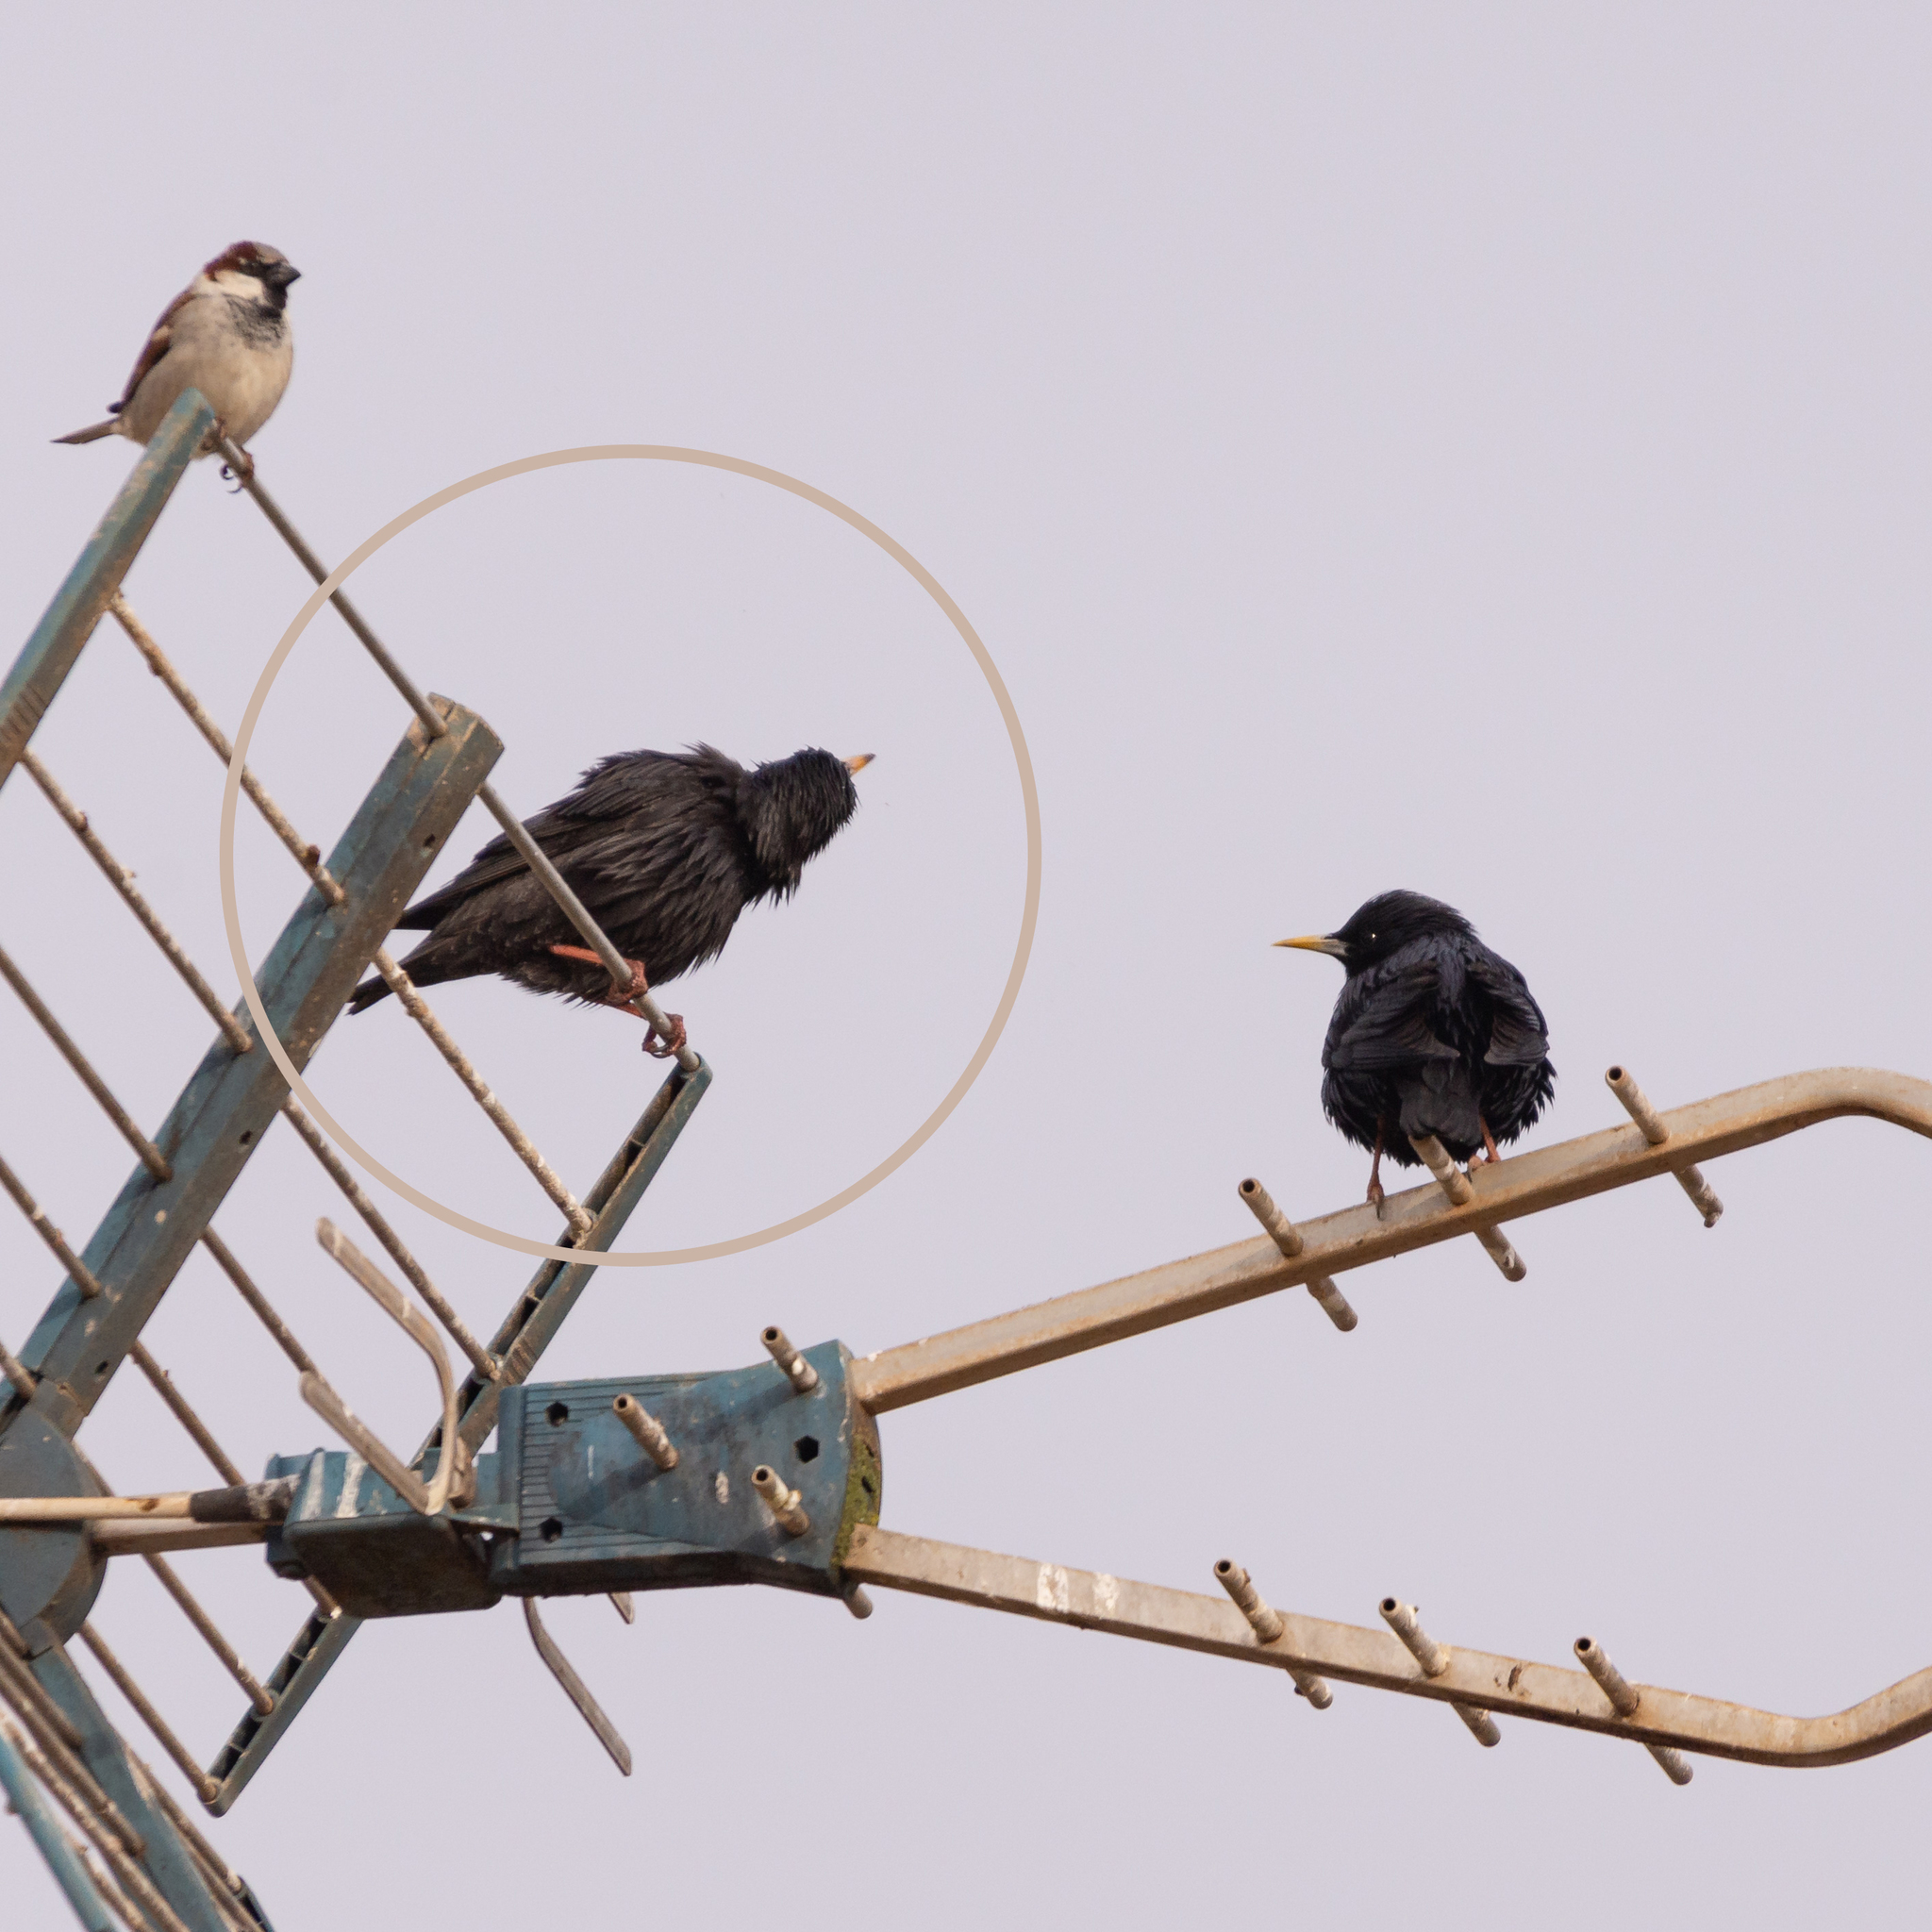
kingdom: Animalia
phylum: Chordata
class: Aves
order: Passeriformes
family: Sturnidae
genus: Sturnus
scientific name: Sturnus unicolor
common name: Spotless starling
